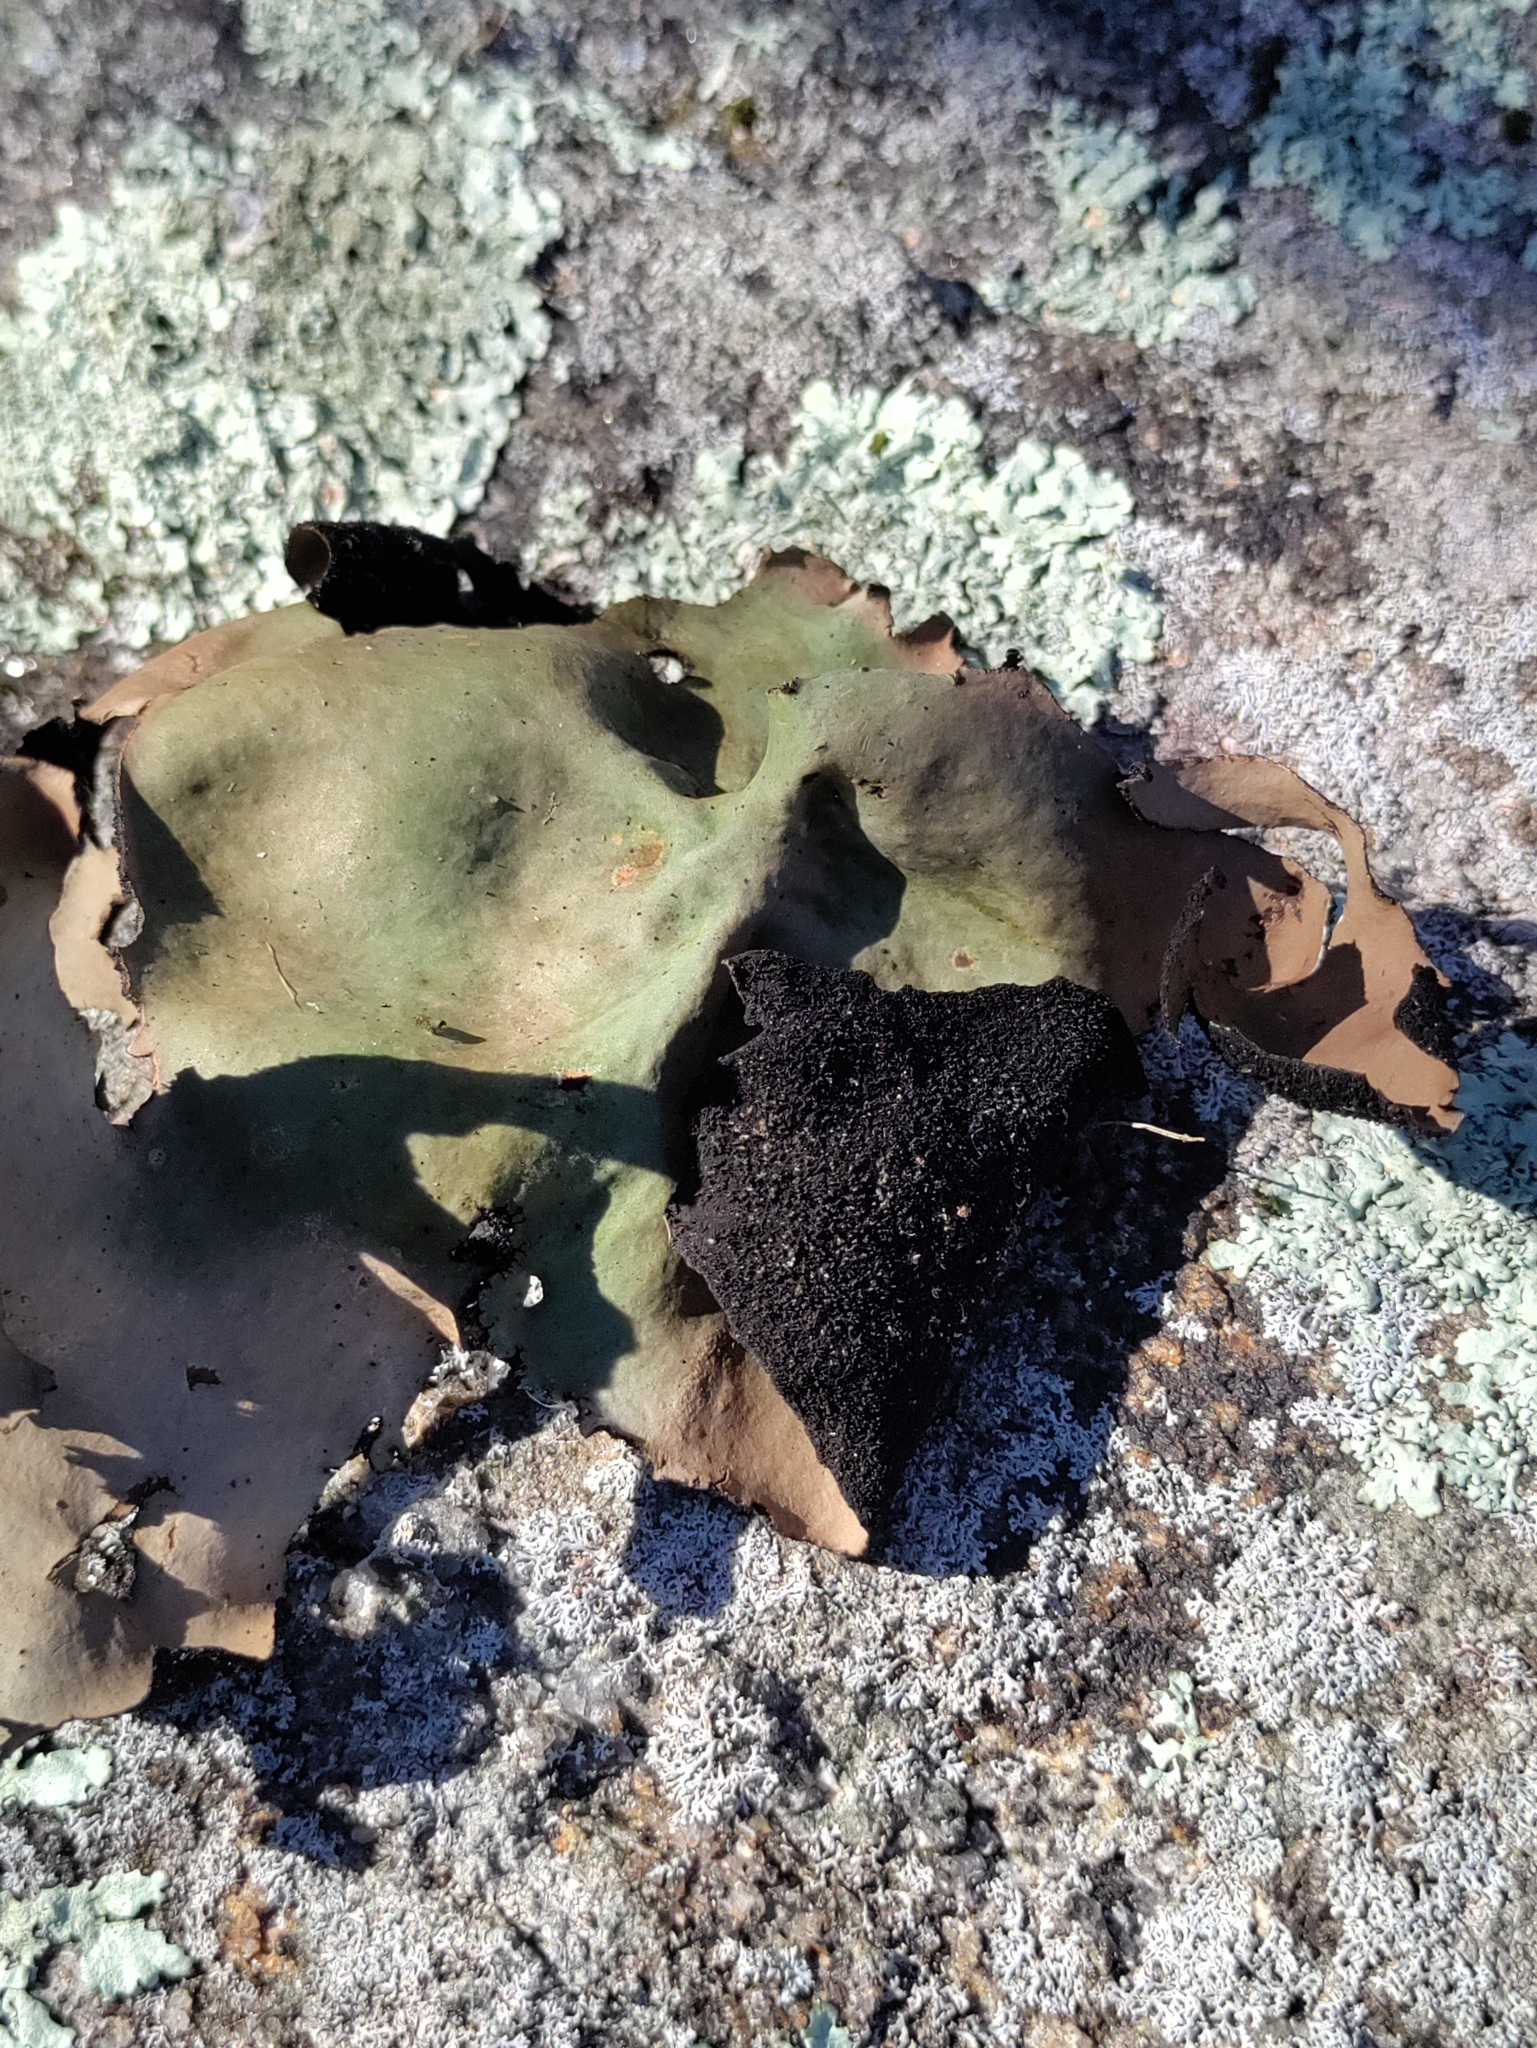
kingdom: Fungi
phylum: Ascomycota
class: Lecanoromycetes
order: Umbilicariales
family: Umbilicariaceae
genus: Umbilicaria
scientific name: Umbilicaria mammulata
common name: Smooth rock tripe
